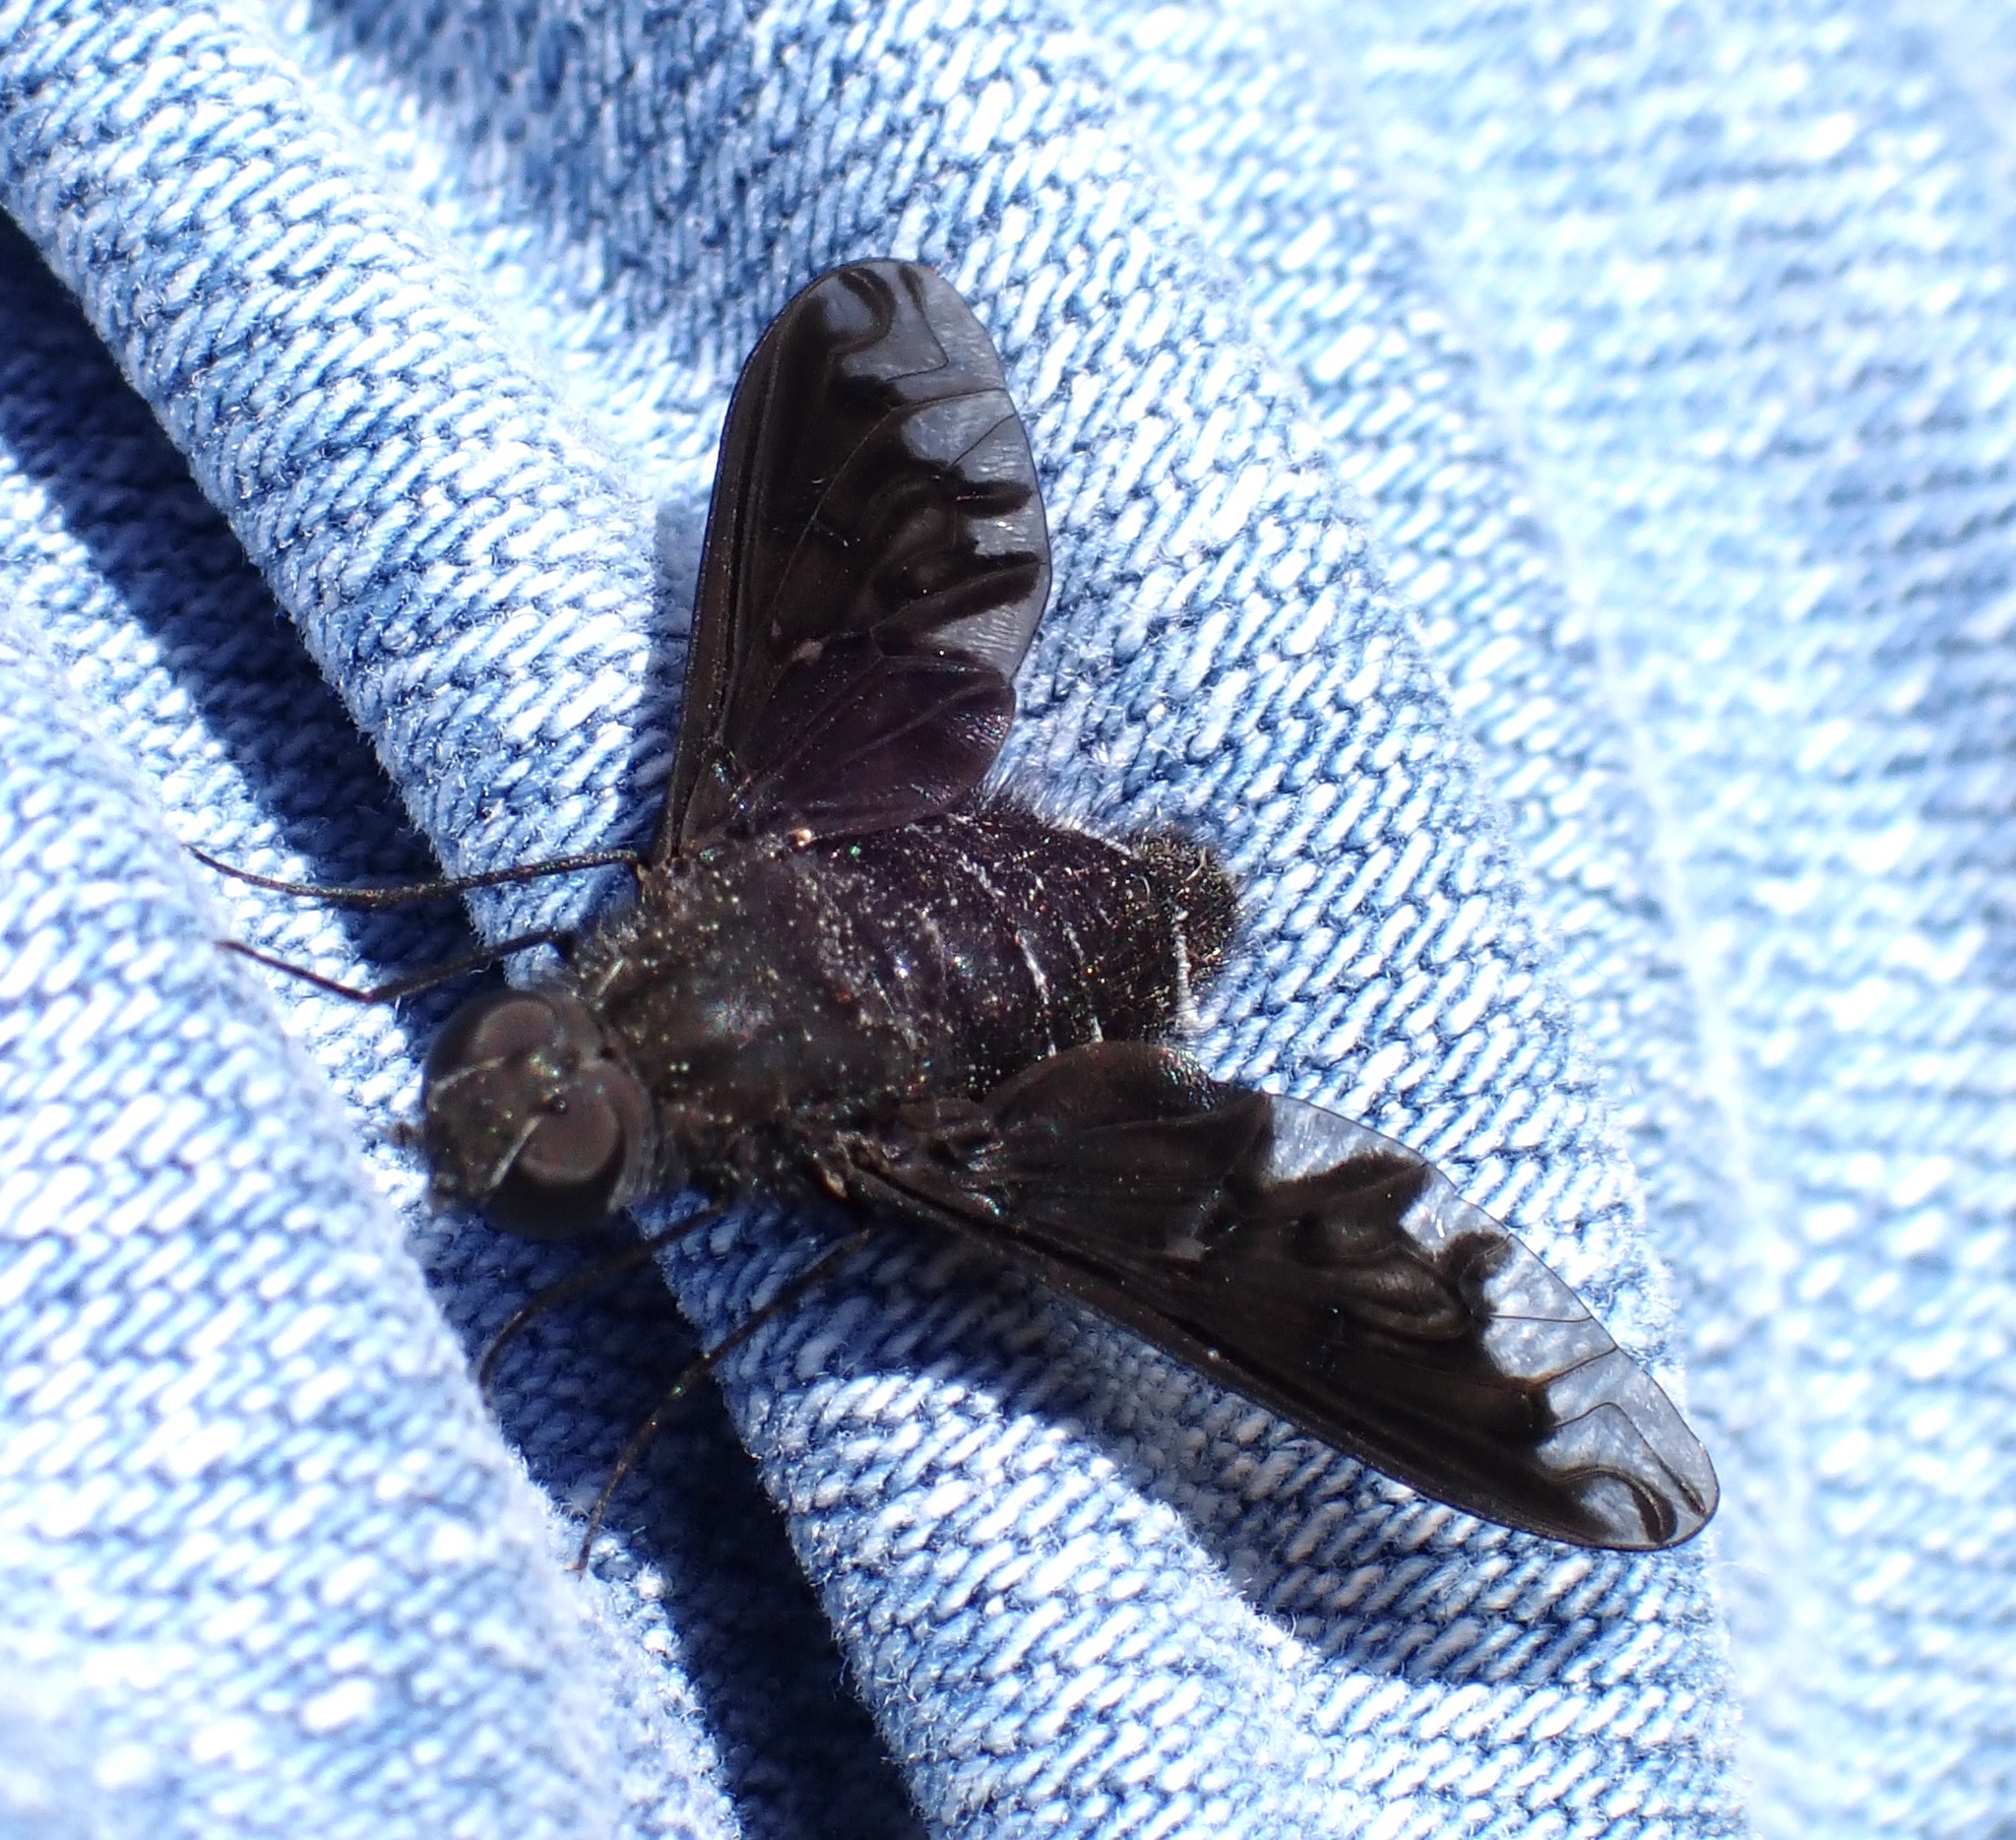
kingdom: Animalia
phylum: Arthropoda
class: Insecta
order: Diptera
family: Bombyliidae
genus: Anthrax
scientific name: Anthrax anthrax
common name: Anthracite bee-fly
